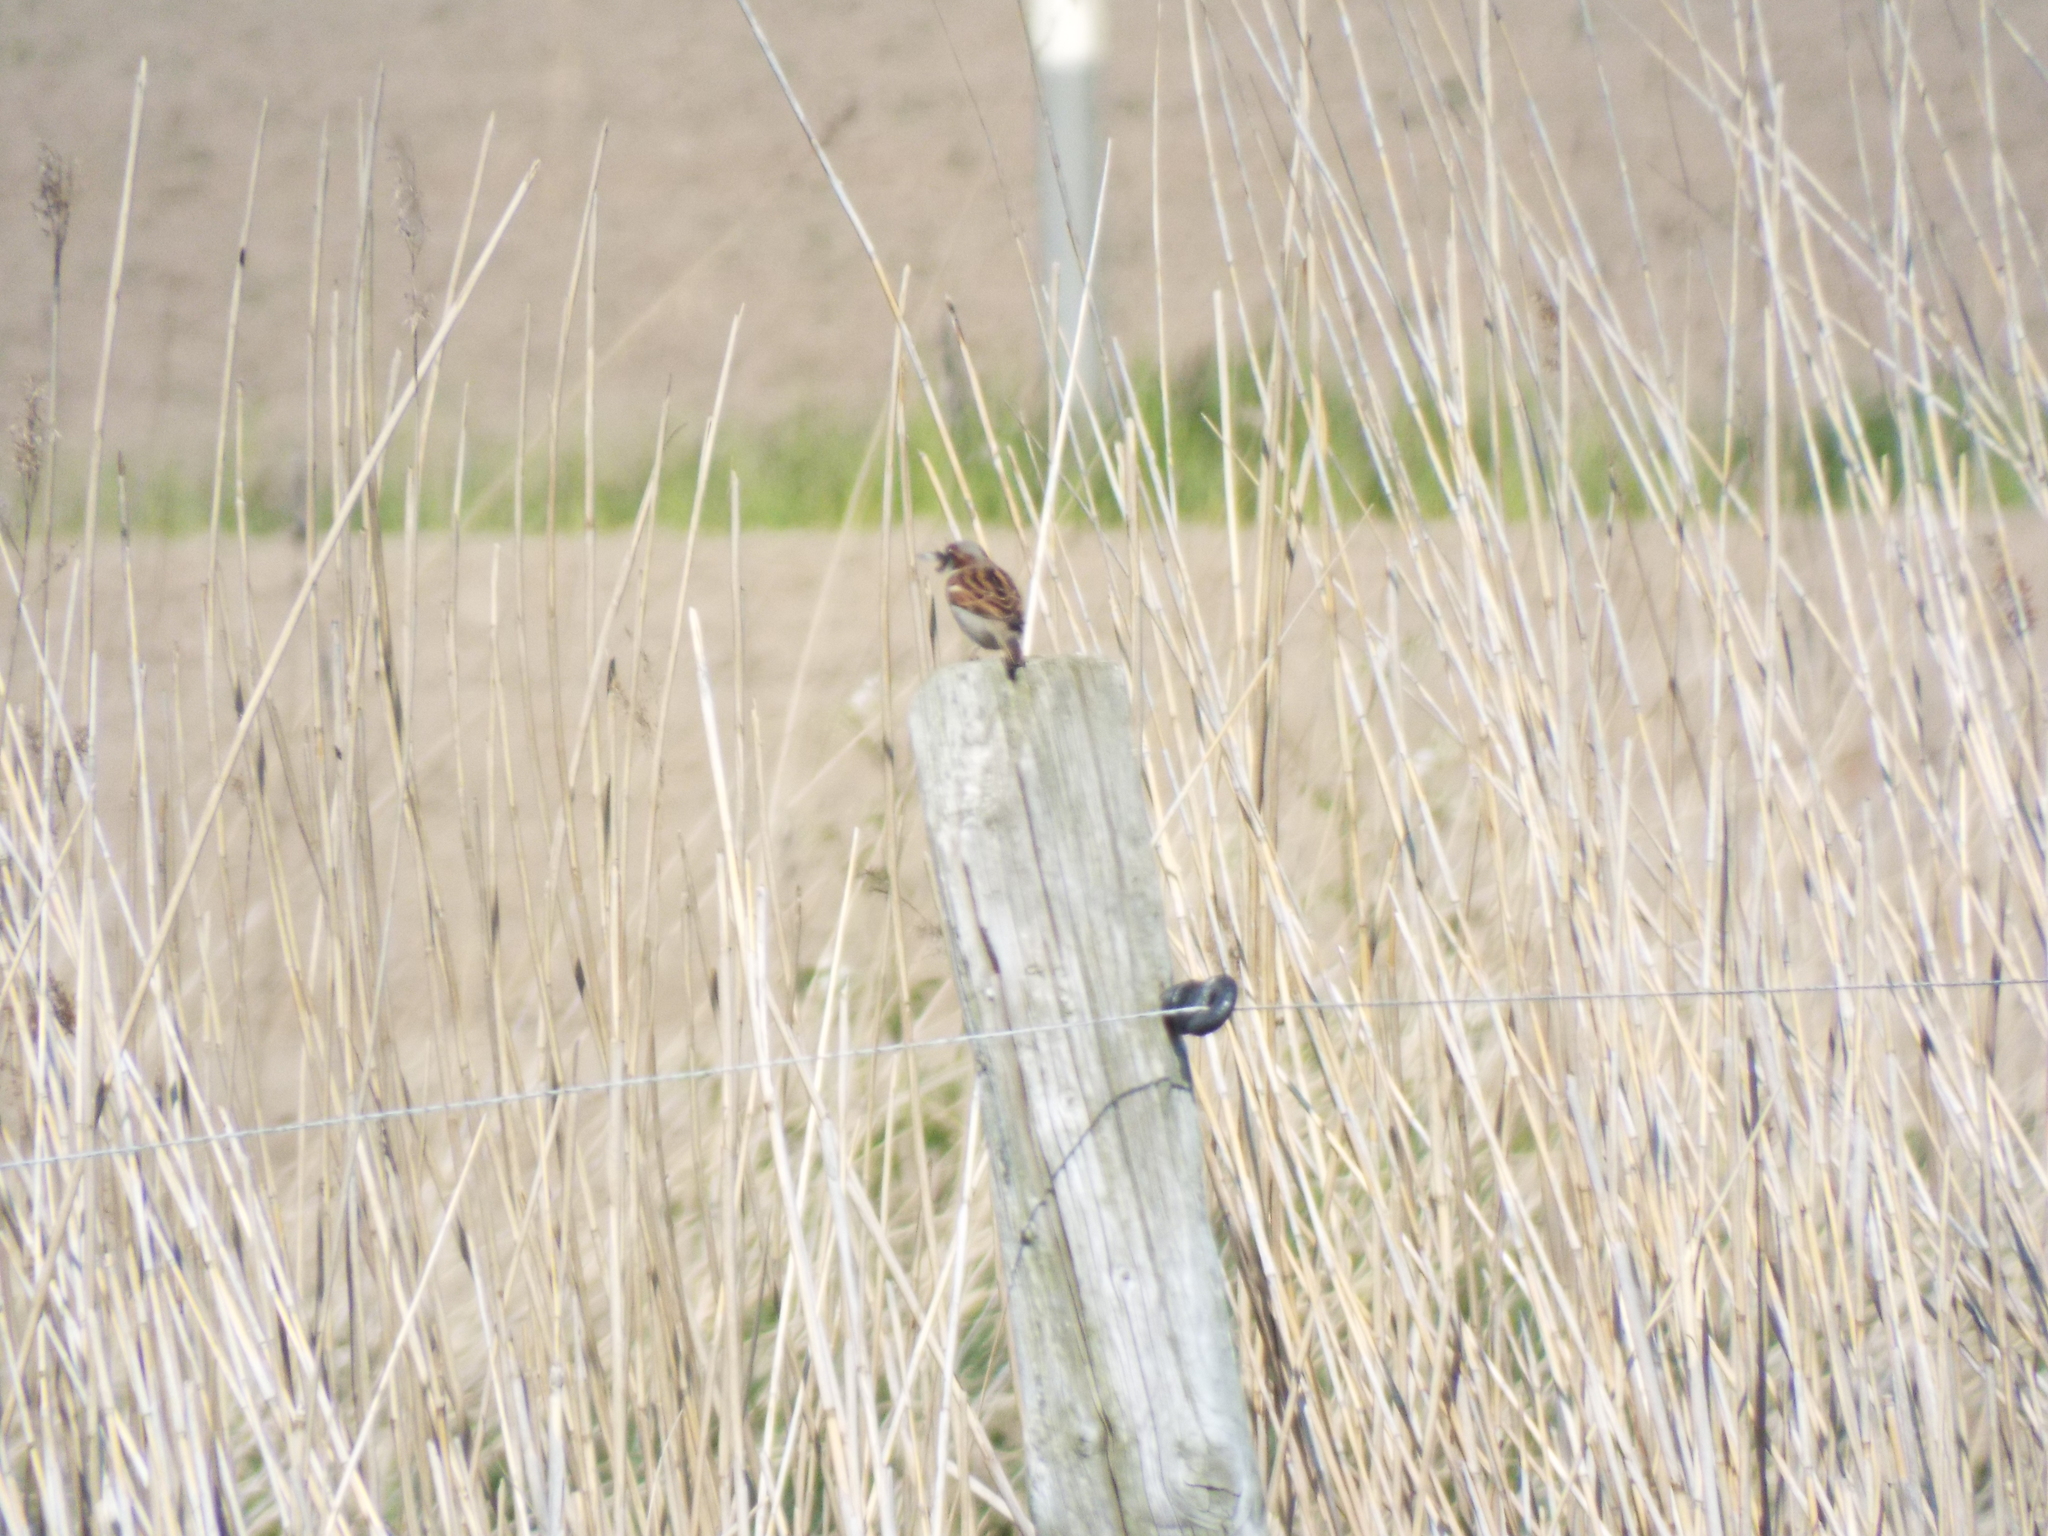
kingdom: Animalia
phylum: Chordata
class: Aves
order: Passeriformes
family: Passeridae
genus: Passer
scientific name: Passer domesticus
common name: House sparrow
